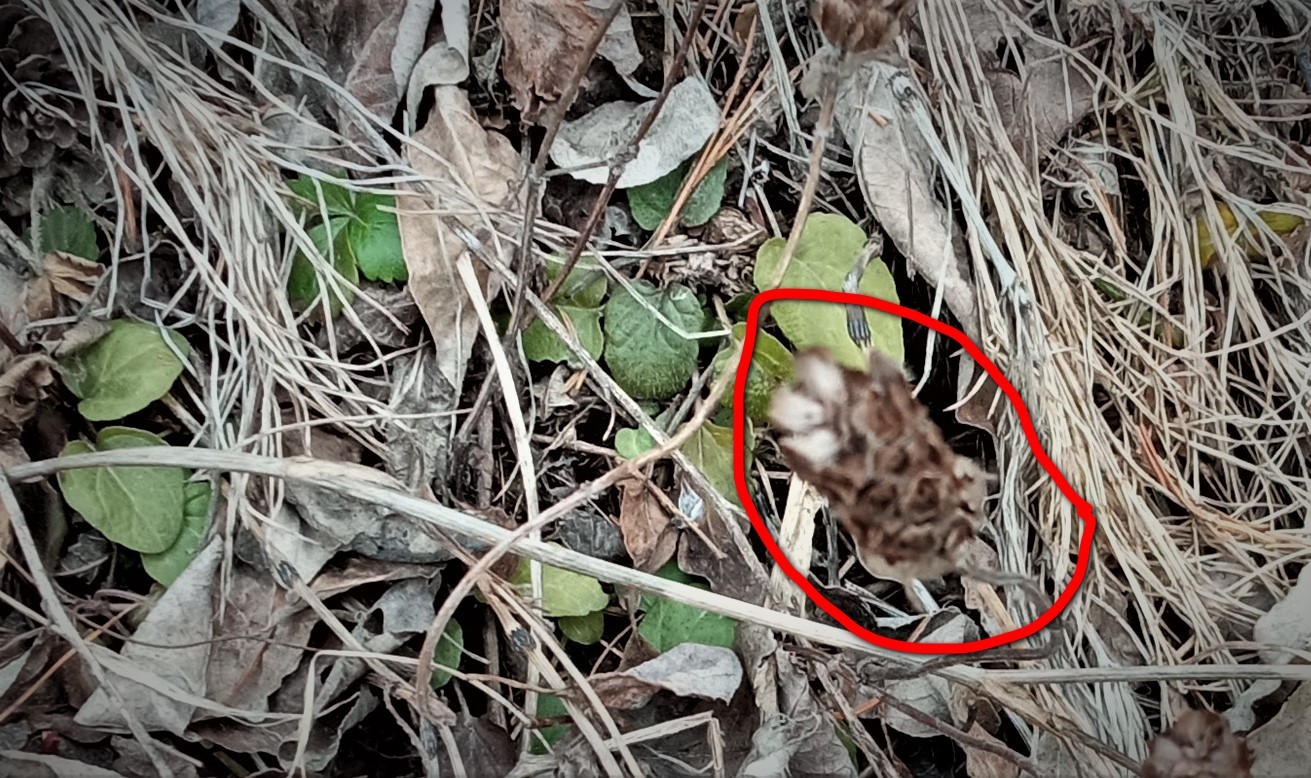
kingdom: Plantae
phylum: Tracheophyta
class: Magnoliopsida
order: Lamiales
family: Lamiaceae
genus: Prunella
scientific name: Prunella vulgaris
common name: Heal-all
